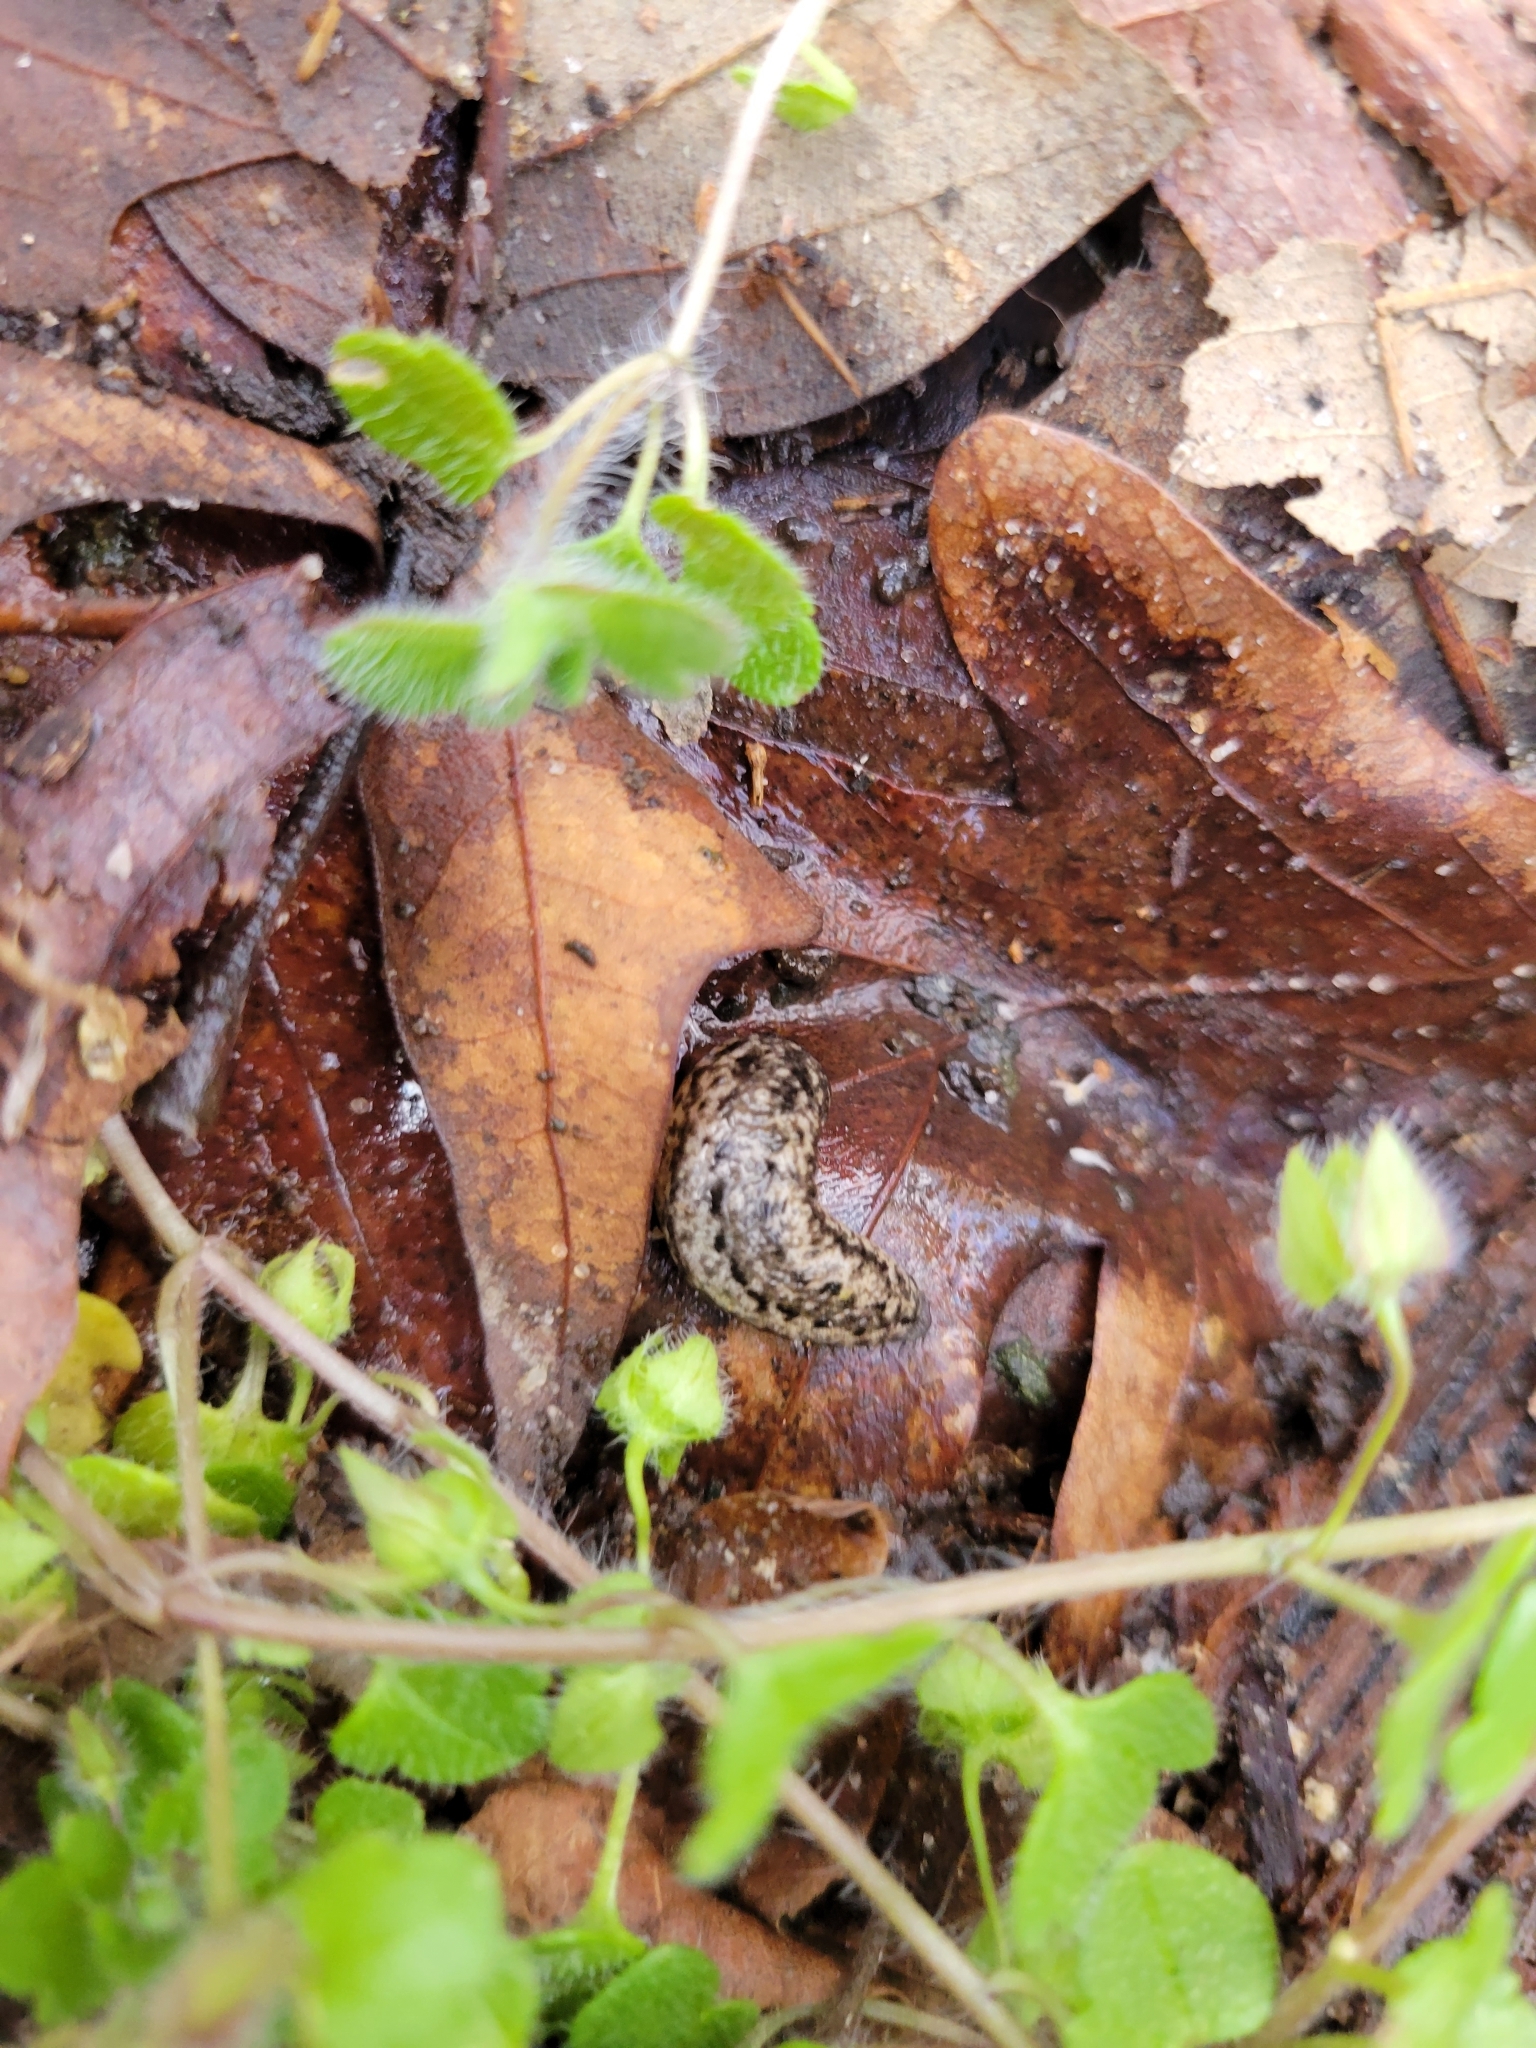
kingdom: Animalia
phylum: Mollusca
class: Gastropoda
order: Stylommatophora
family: Philomycidae
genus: Philomycus
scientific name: Philomycus carolinianus
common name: Carolina mantleslug
